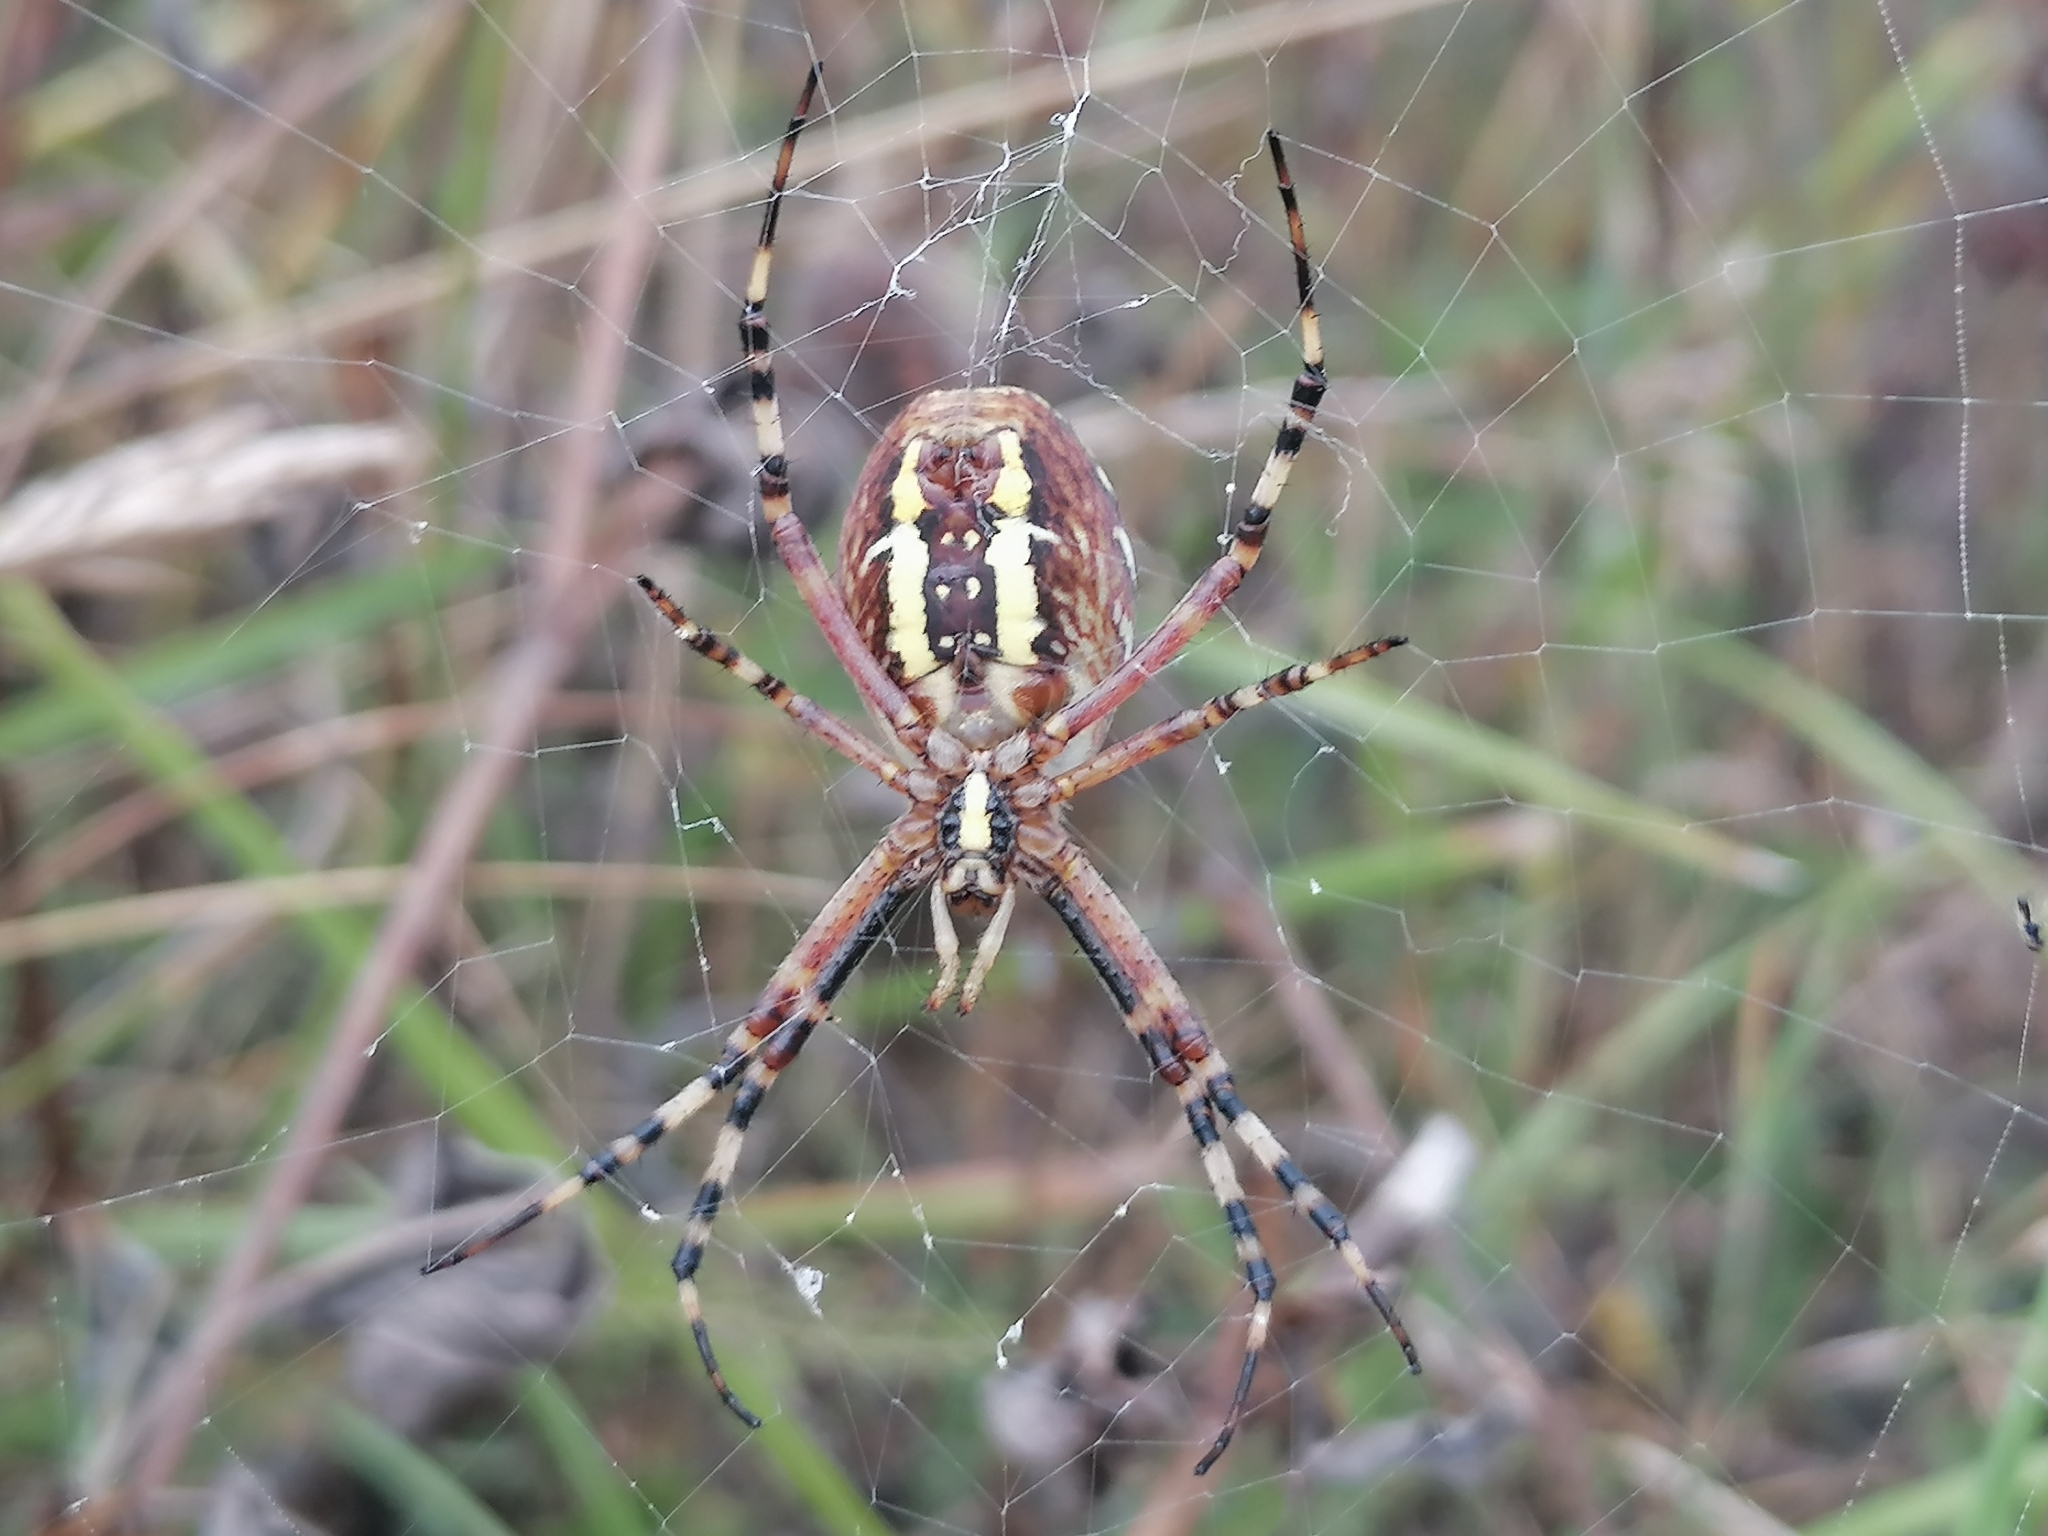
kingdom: Animalia
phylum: Arthropoda
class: Arachnida
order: Araneae
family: Araneidae
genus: Argiope
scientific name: Argiope bruennichi
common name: Wasp spider
